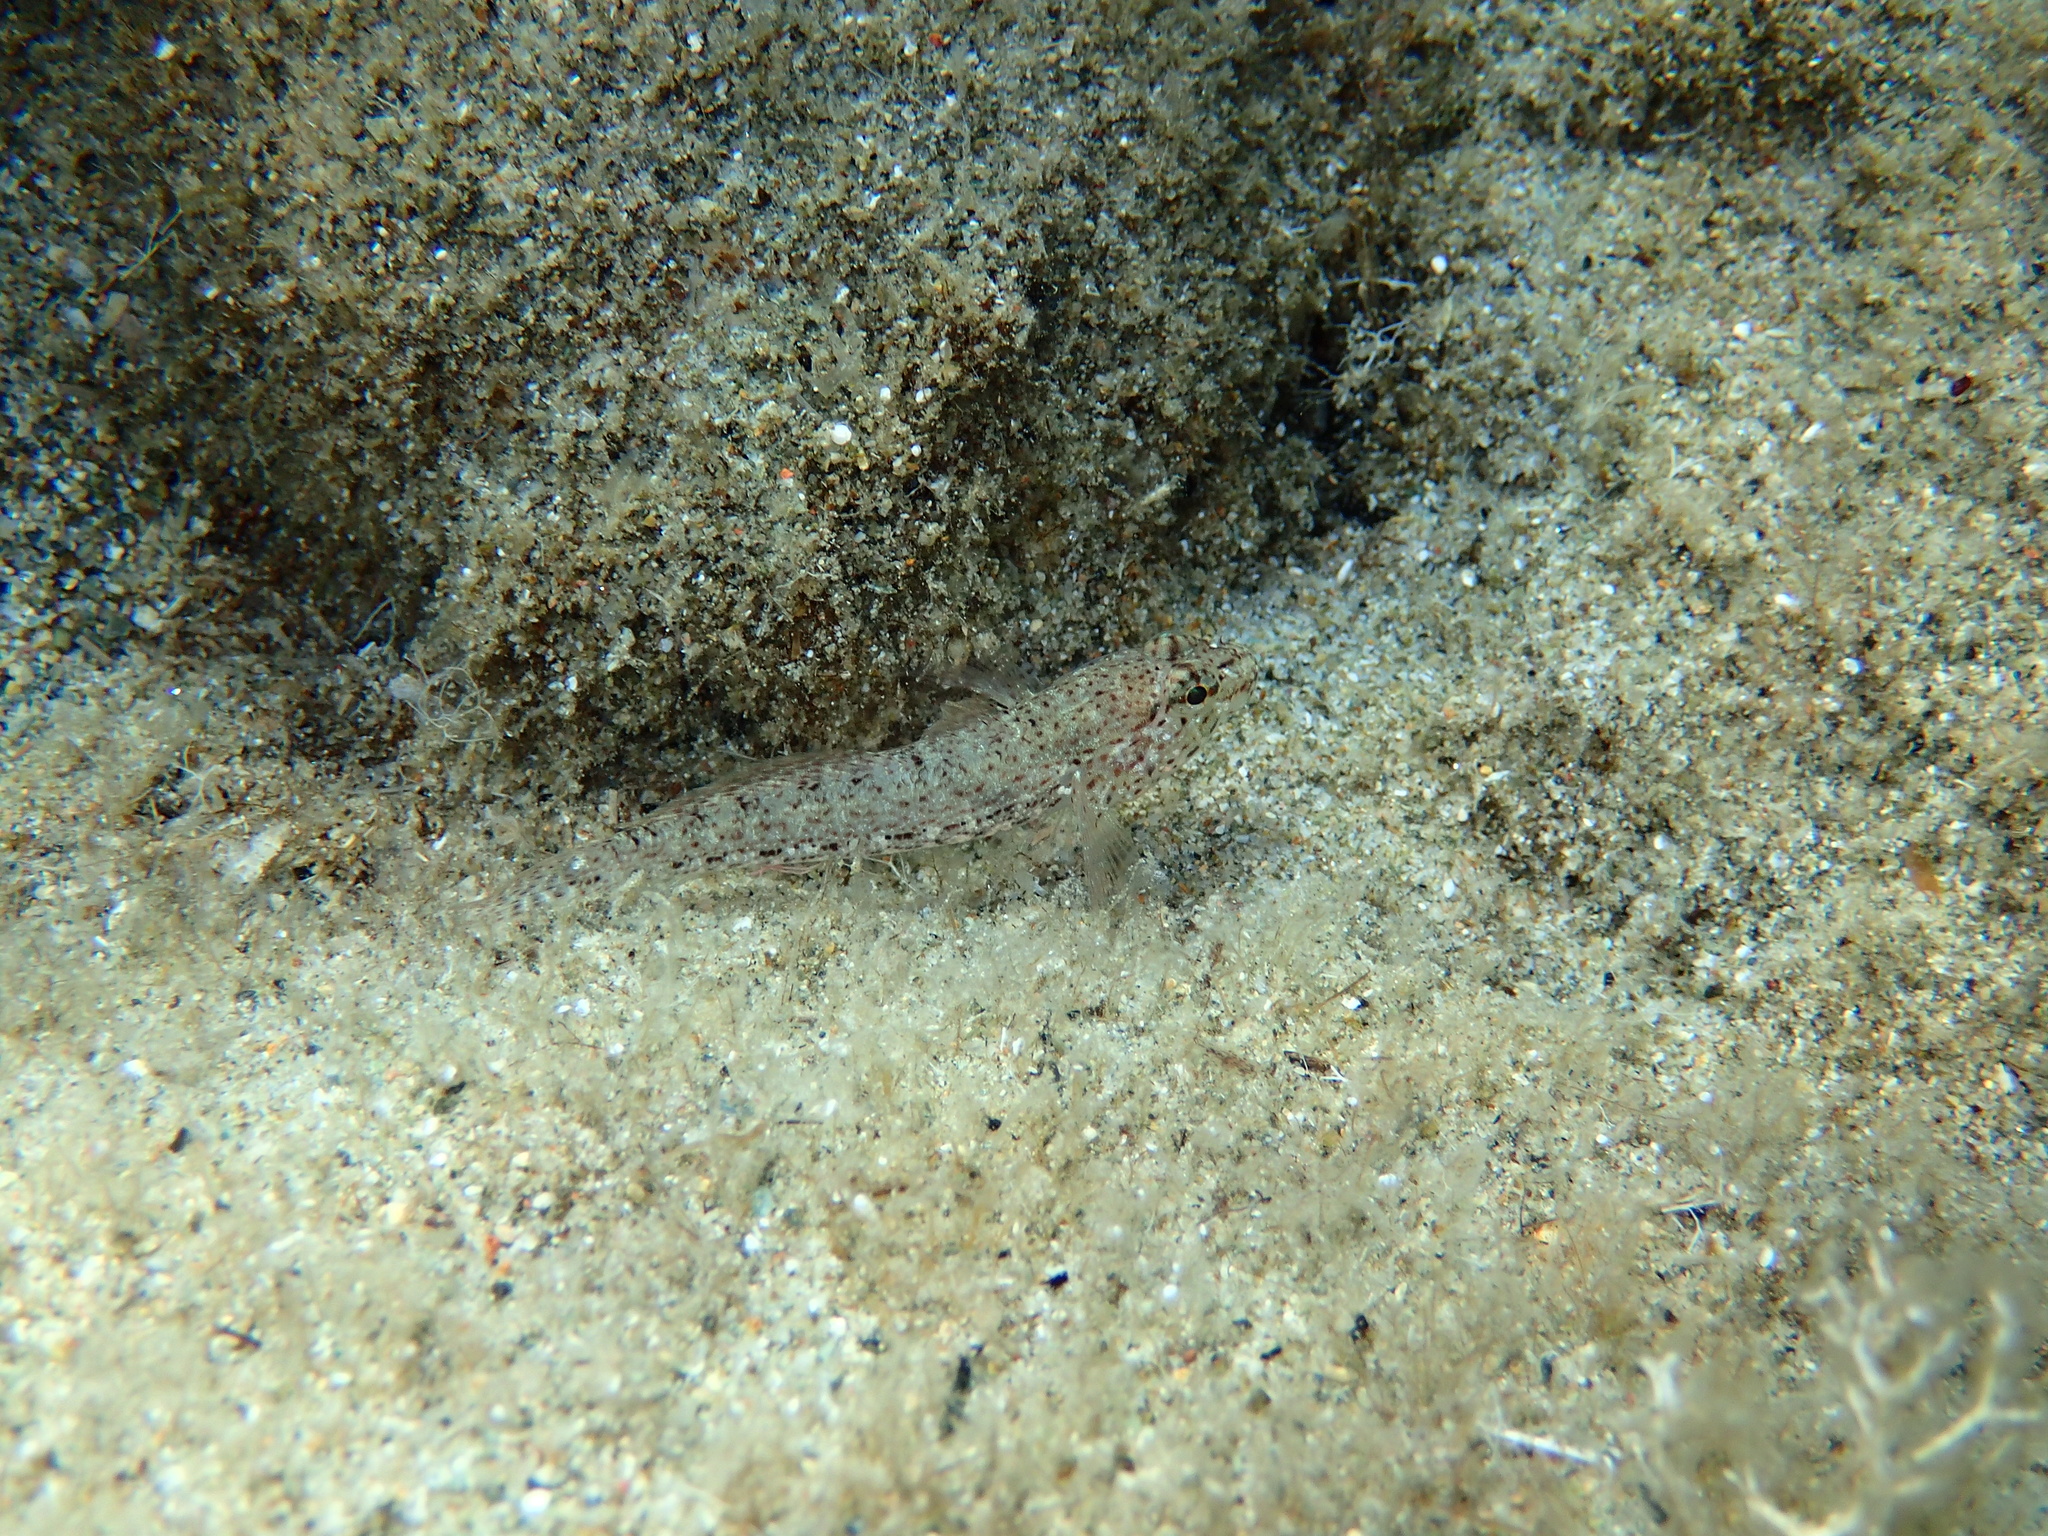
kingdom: Animalia
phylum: Chordata
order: Perciformes
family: Gobiidae
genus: Gobius
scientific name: Gobius incognitus
